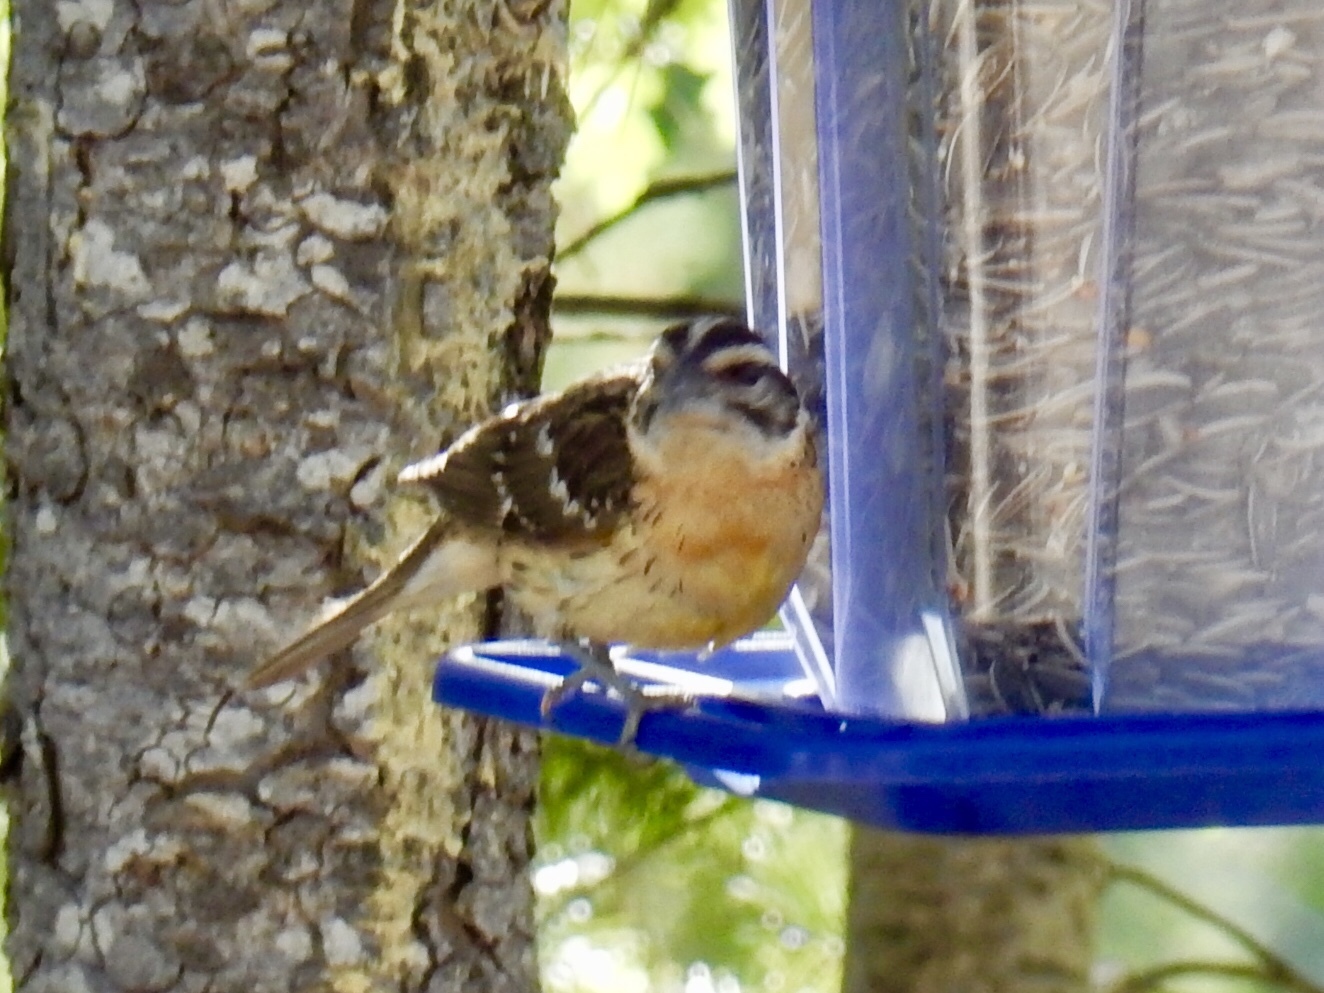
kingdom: Animalia
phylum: Chordata
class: Aves
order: Passeriformes
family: Cardinalidae
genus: Pheucticus
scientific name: Pheucticus melanocephalus
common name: Black-headed grosbeak
